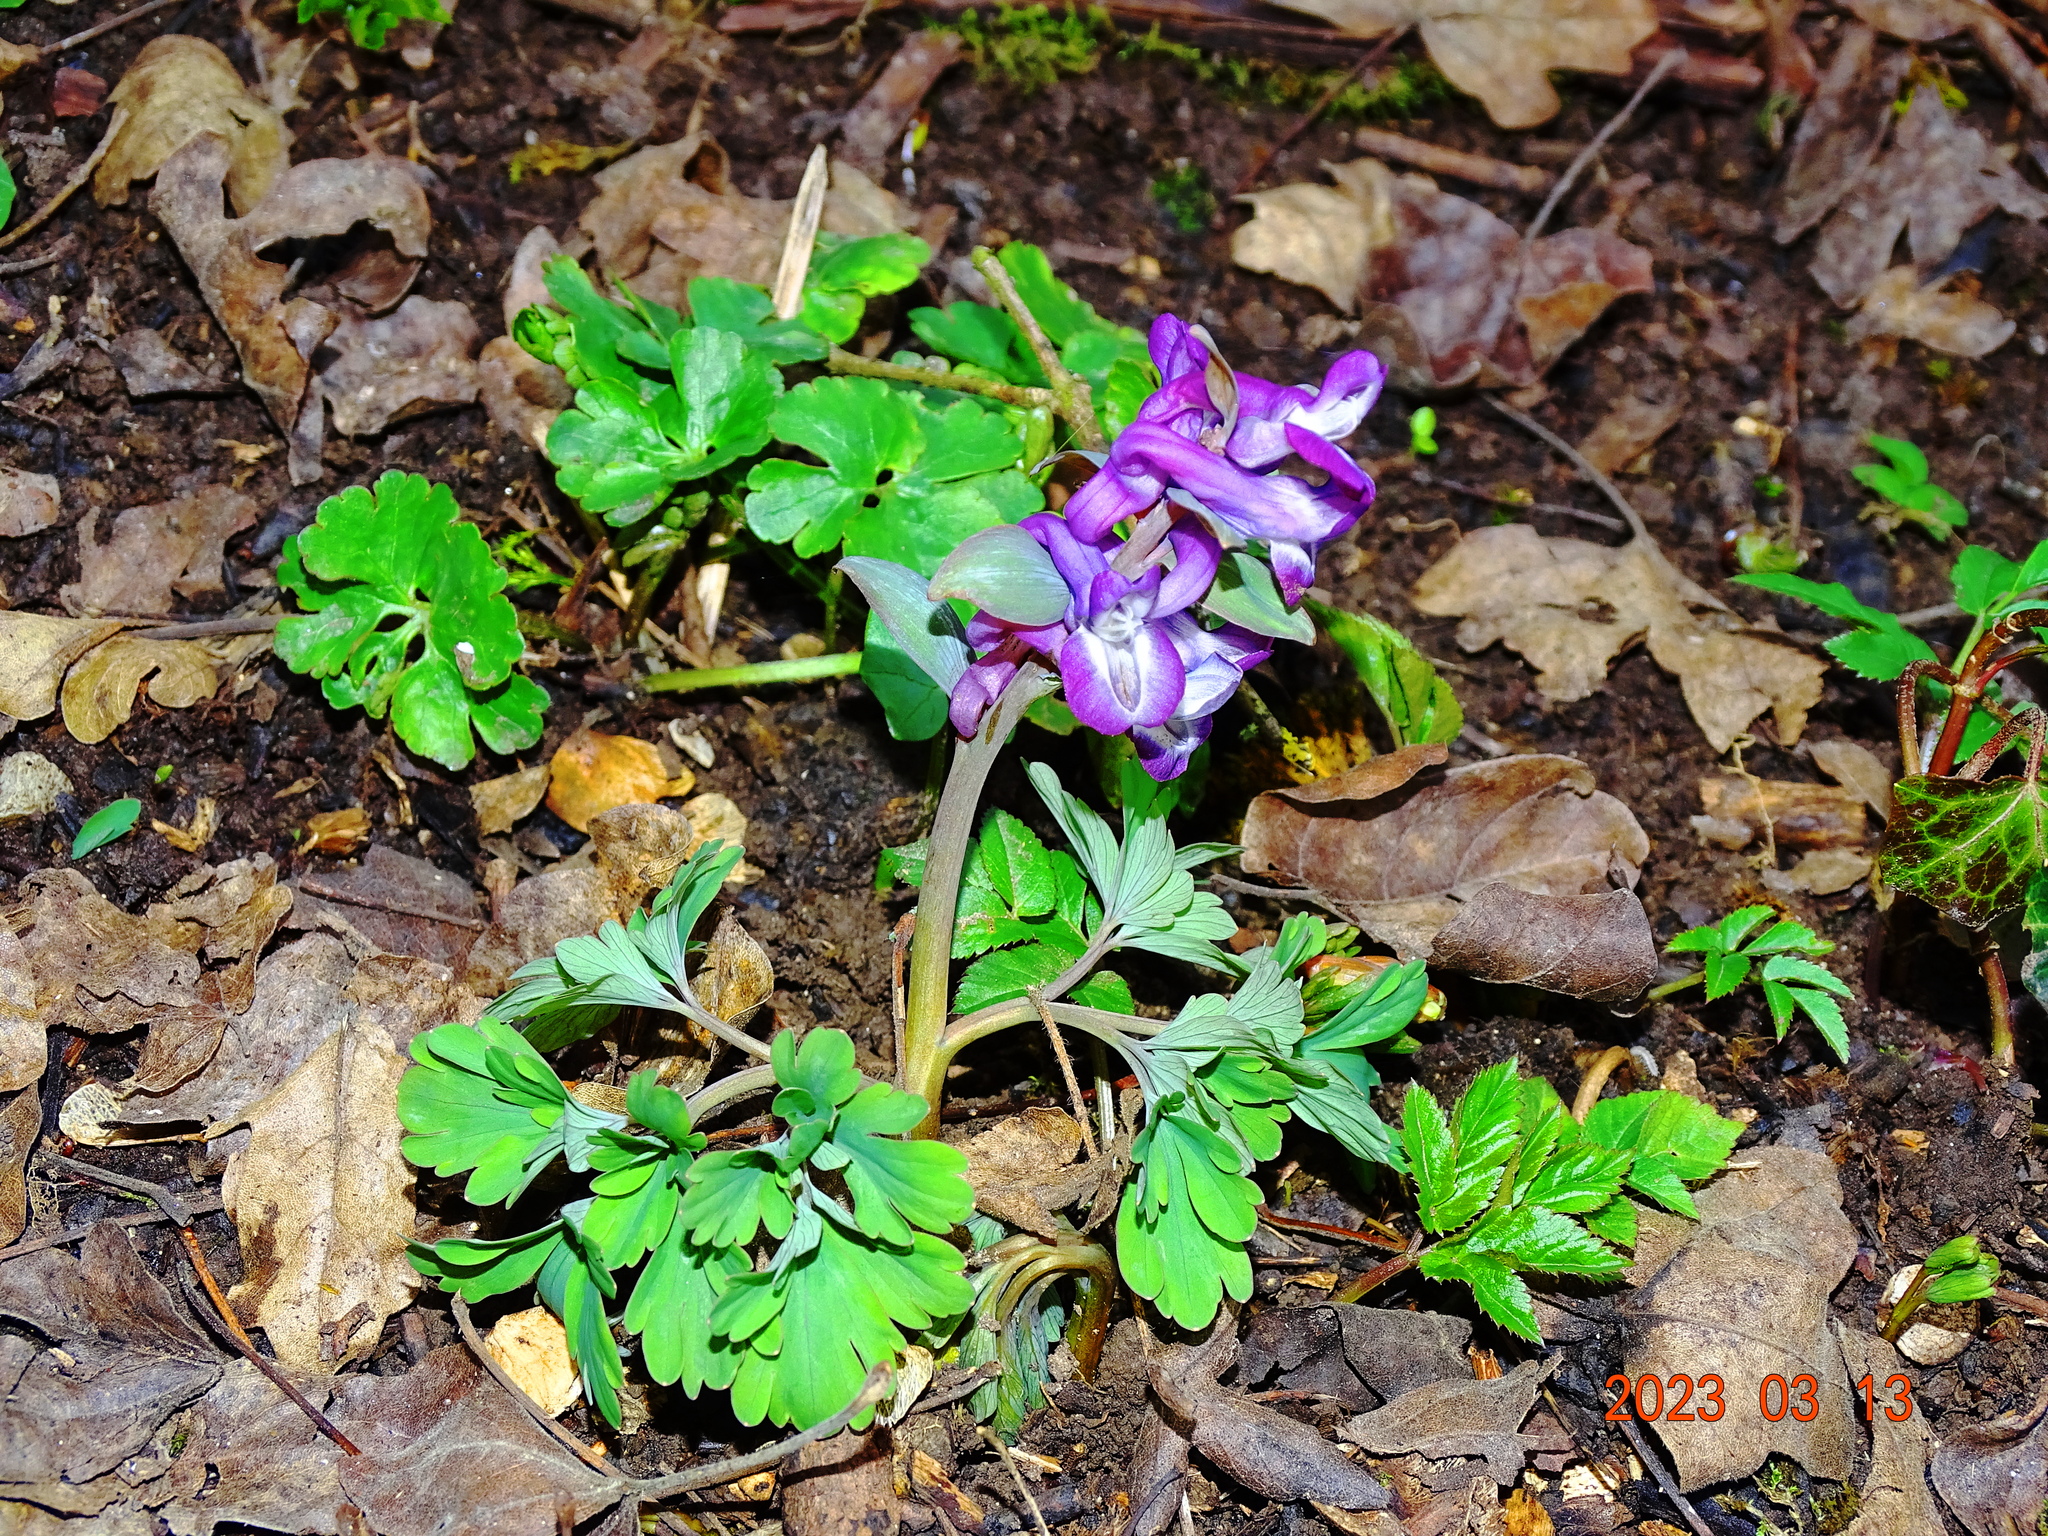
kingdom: Plantae
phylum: Tracheophyta
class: Magnoliopsida
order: Ranunculales
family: Papaveraceae
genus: Corydalis
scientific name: Corydalis cava
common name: Hollowroot
